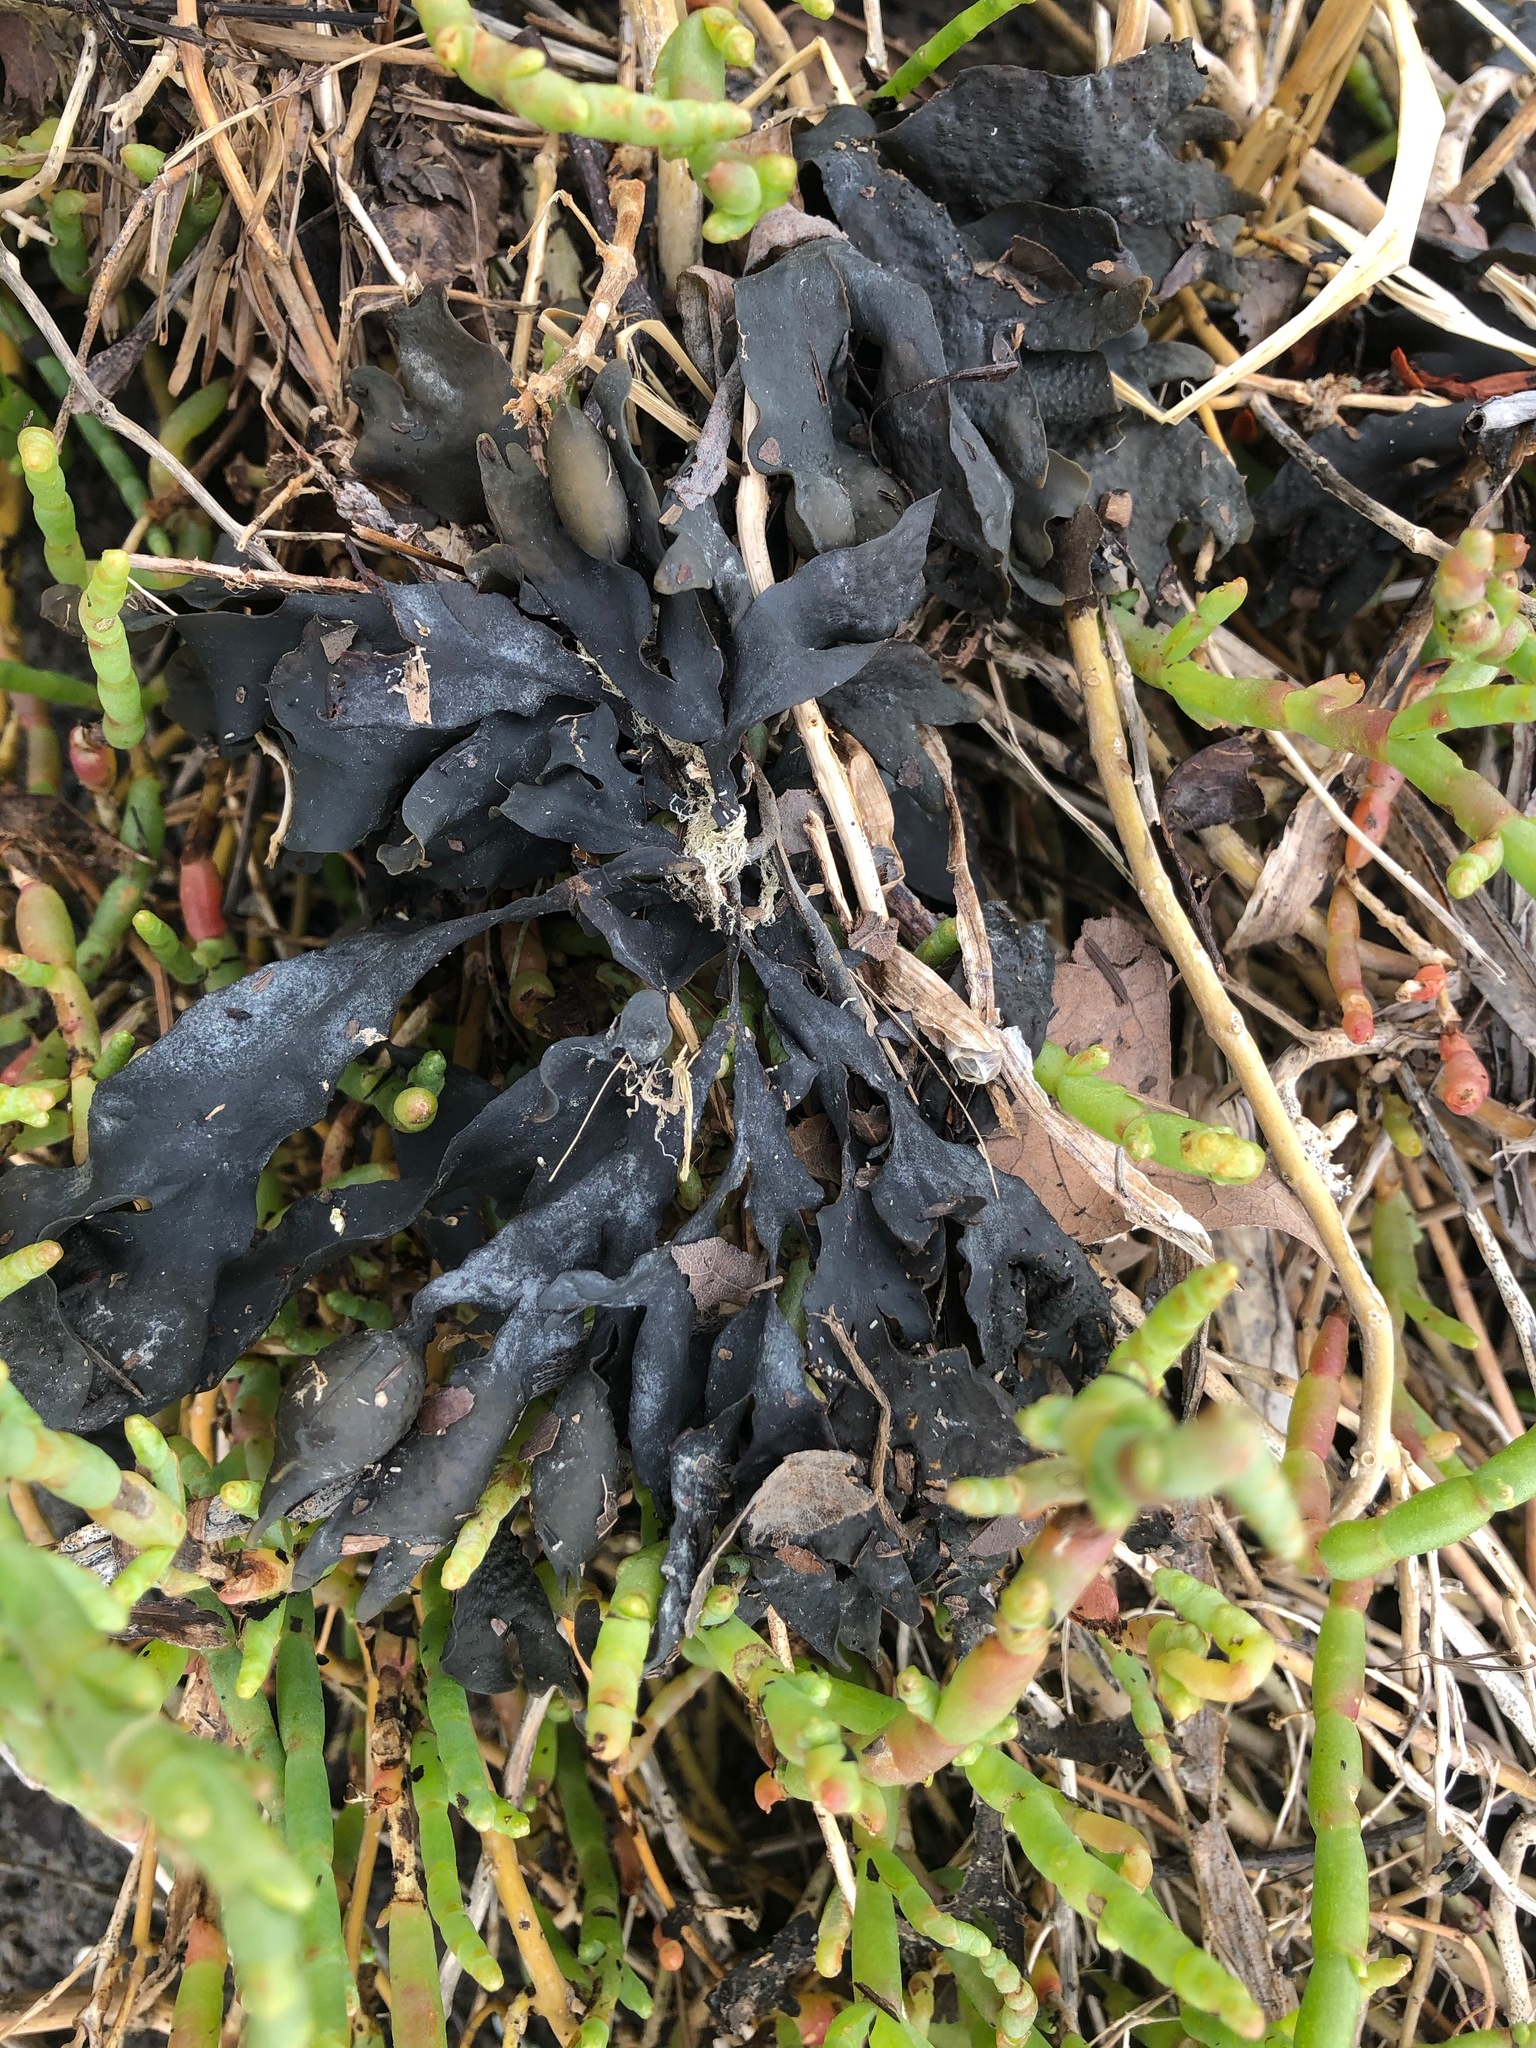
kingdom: Chromista
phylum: Ochrophyta
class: Phaeophyceae
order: Fucales
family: Fucaceae
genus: Fucus
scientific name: Fucus distichus
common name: Rockweed
